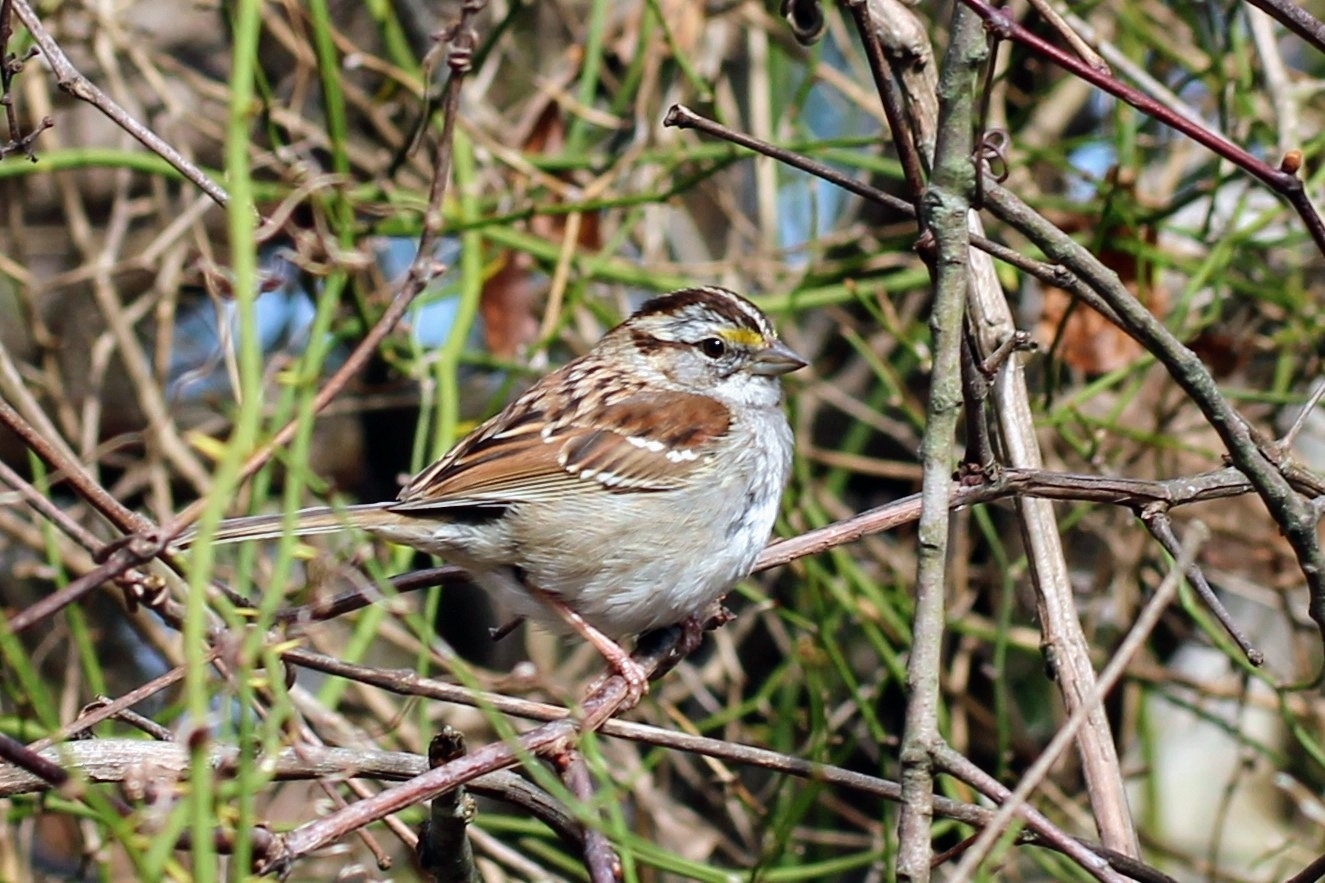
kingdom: Animalia
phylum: Chordata
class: Aves
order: Passeriformes
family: Passerellidae
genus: Zonotrichia
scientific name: Zonotrichia albicollis
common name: White-throated sparrow
